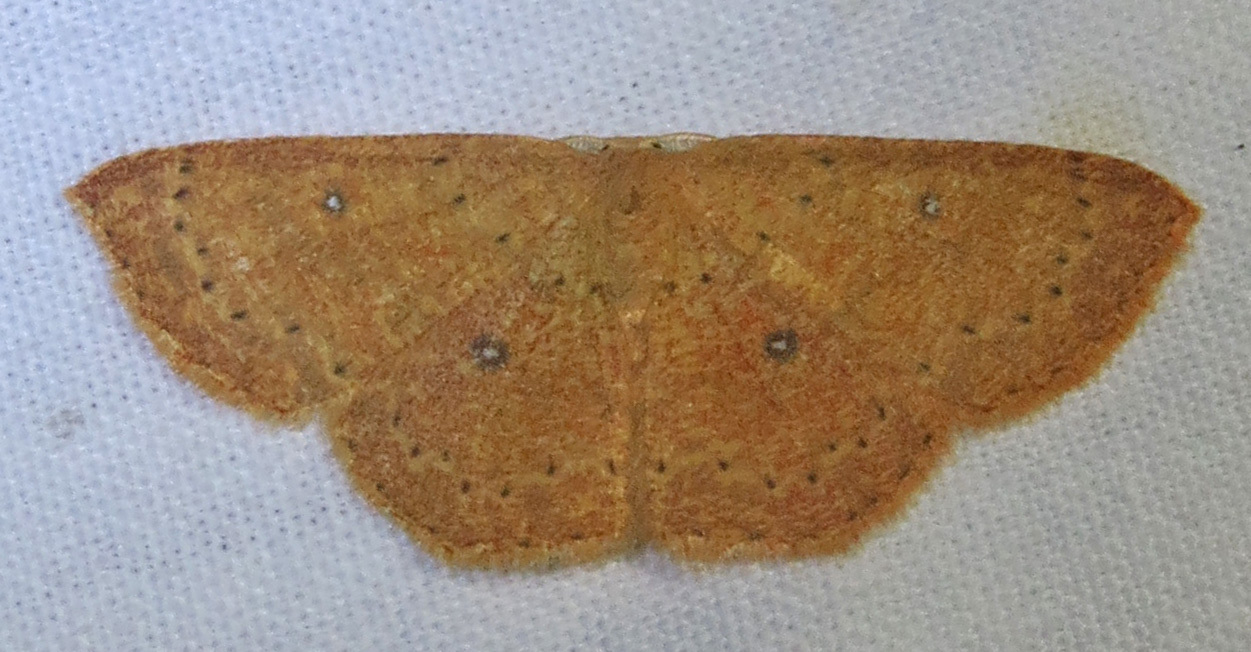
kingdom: Animalia
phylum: Arthropoda
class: Insecta
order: Lepidoptera
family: Geometridae
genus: Cyclophora
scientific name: Cyclophora packardi
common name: Packard's wave
